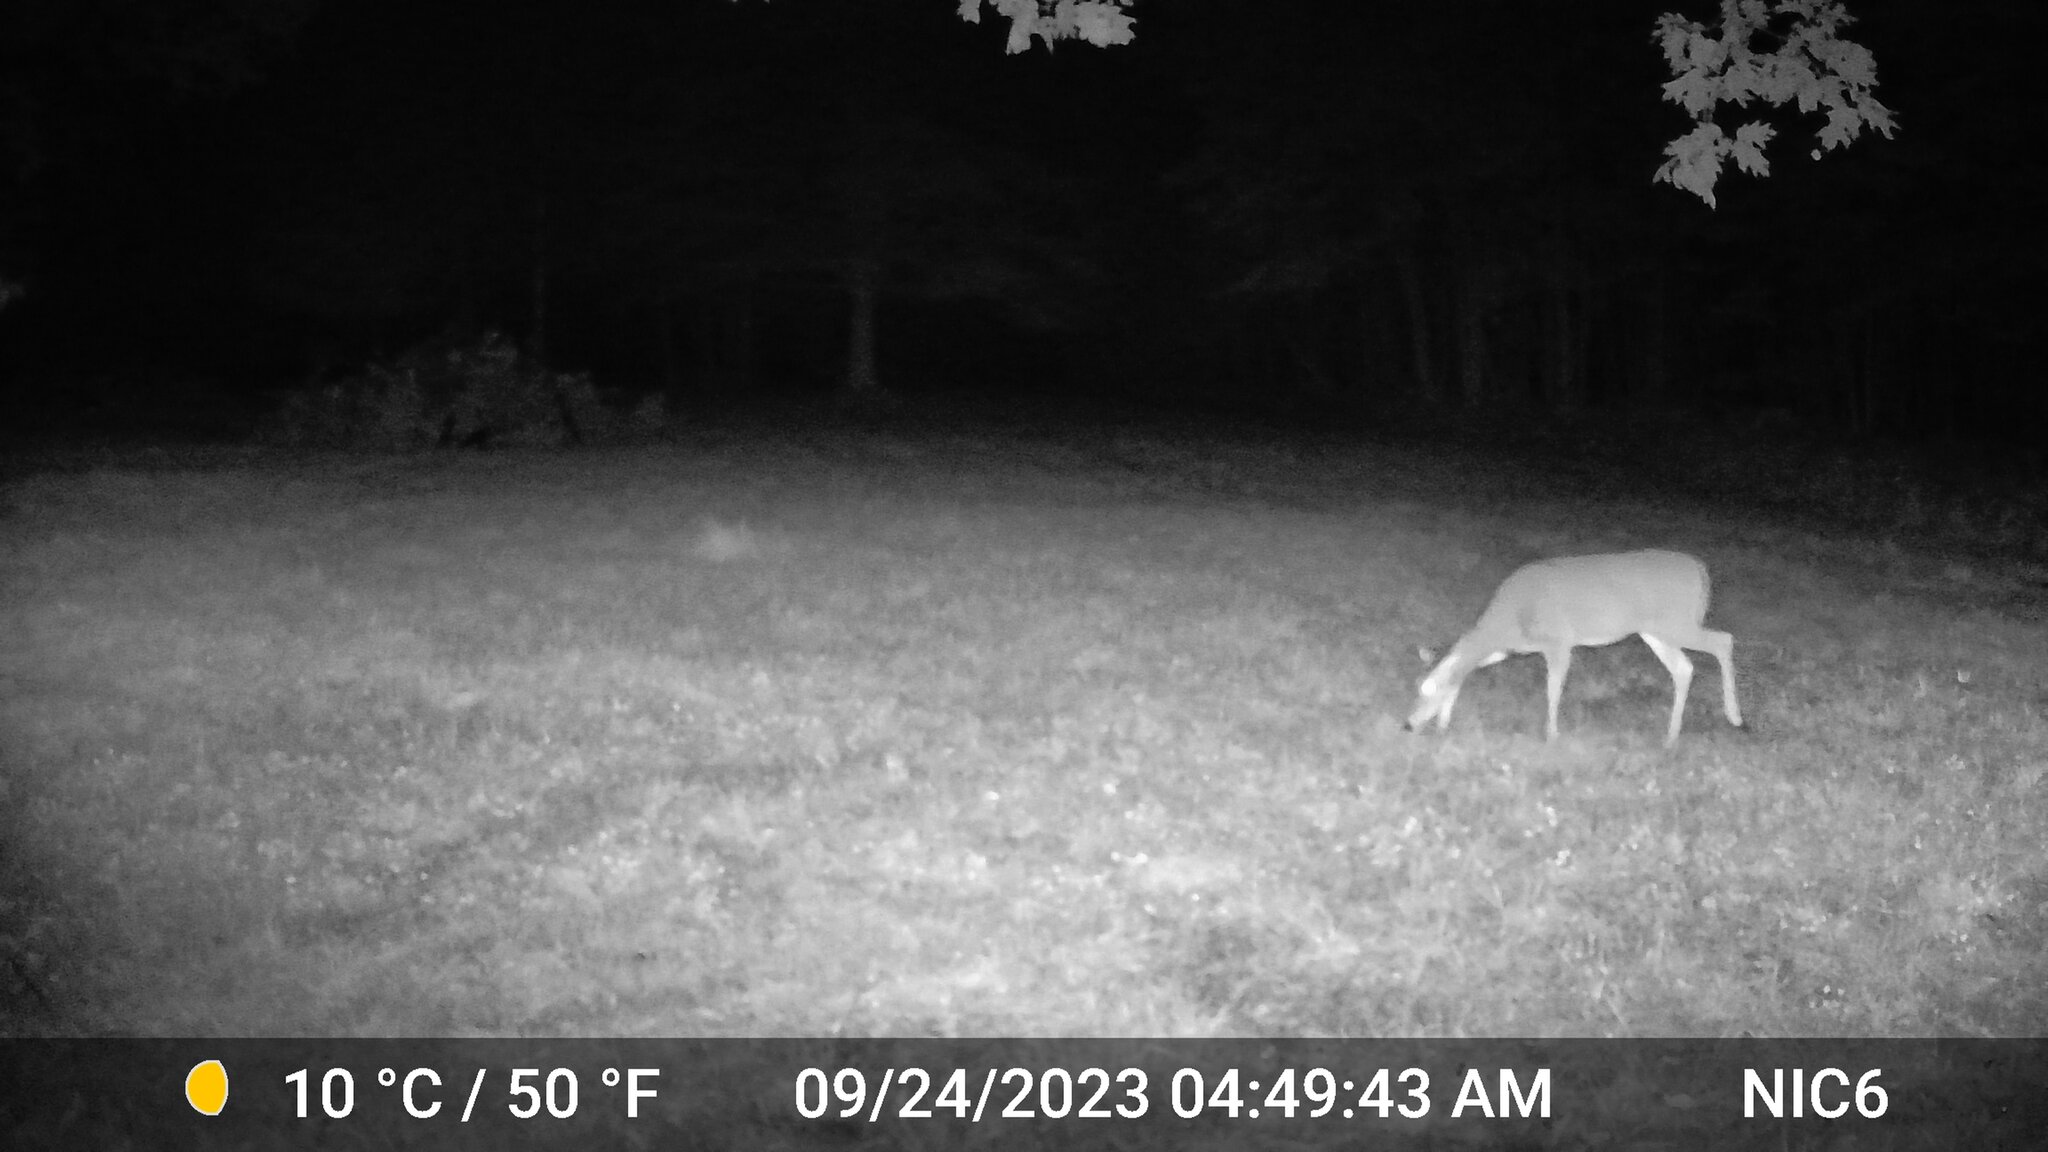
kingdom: Animalia
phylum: Chordata
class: Mammalia
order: Artiodactyla
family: Cervidae
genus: Odocoileus
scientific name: Odocoileus virginianus
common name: White-tailed deer
